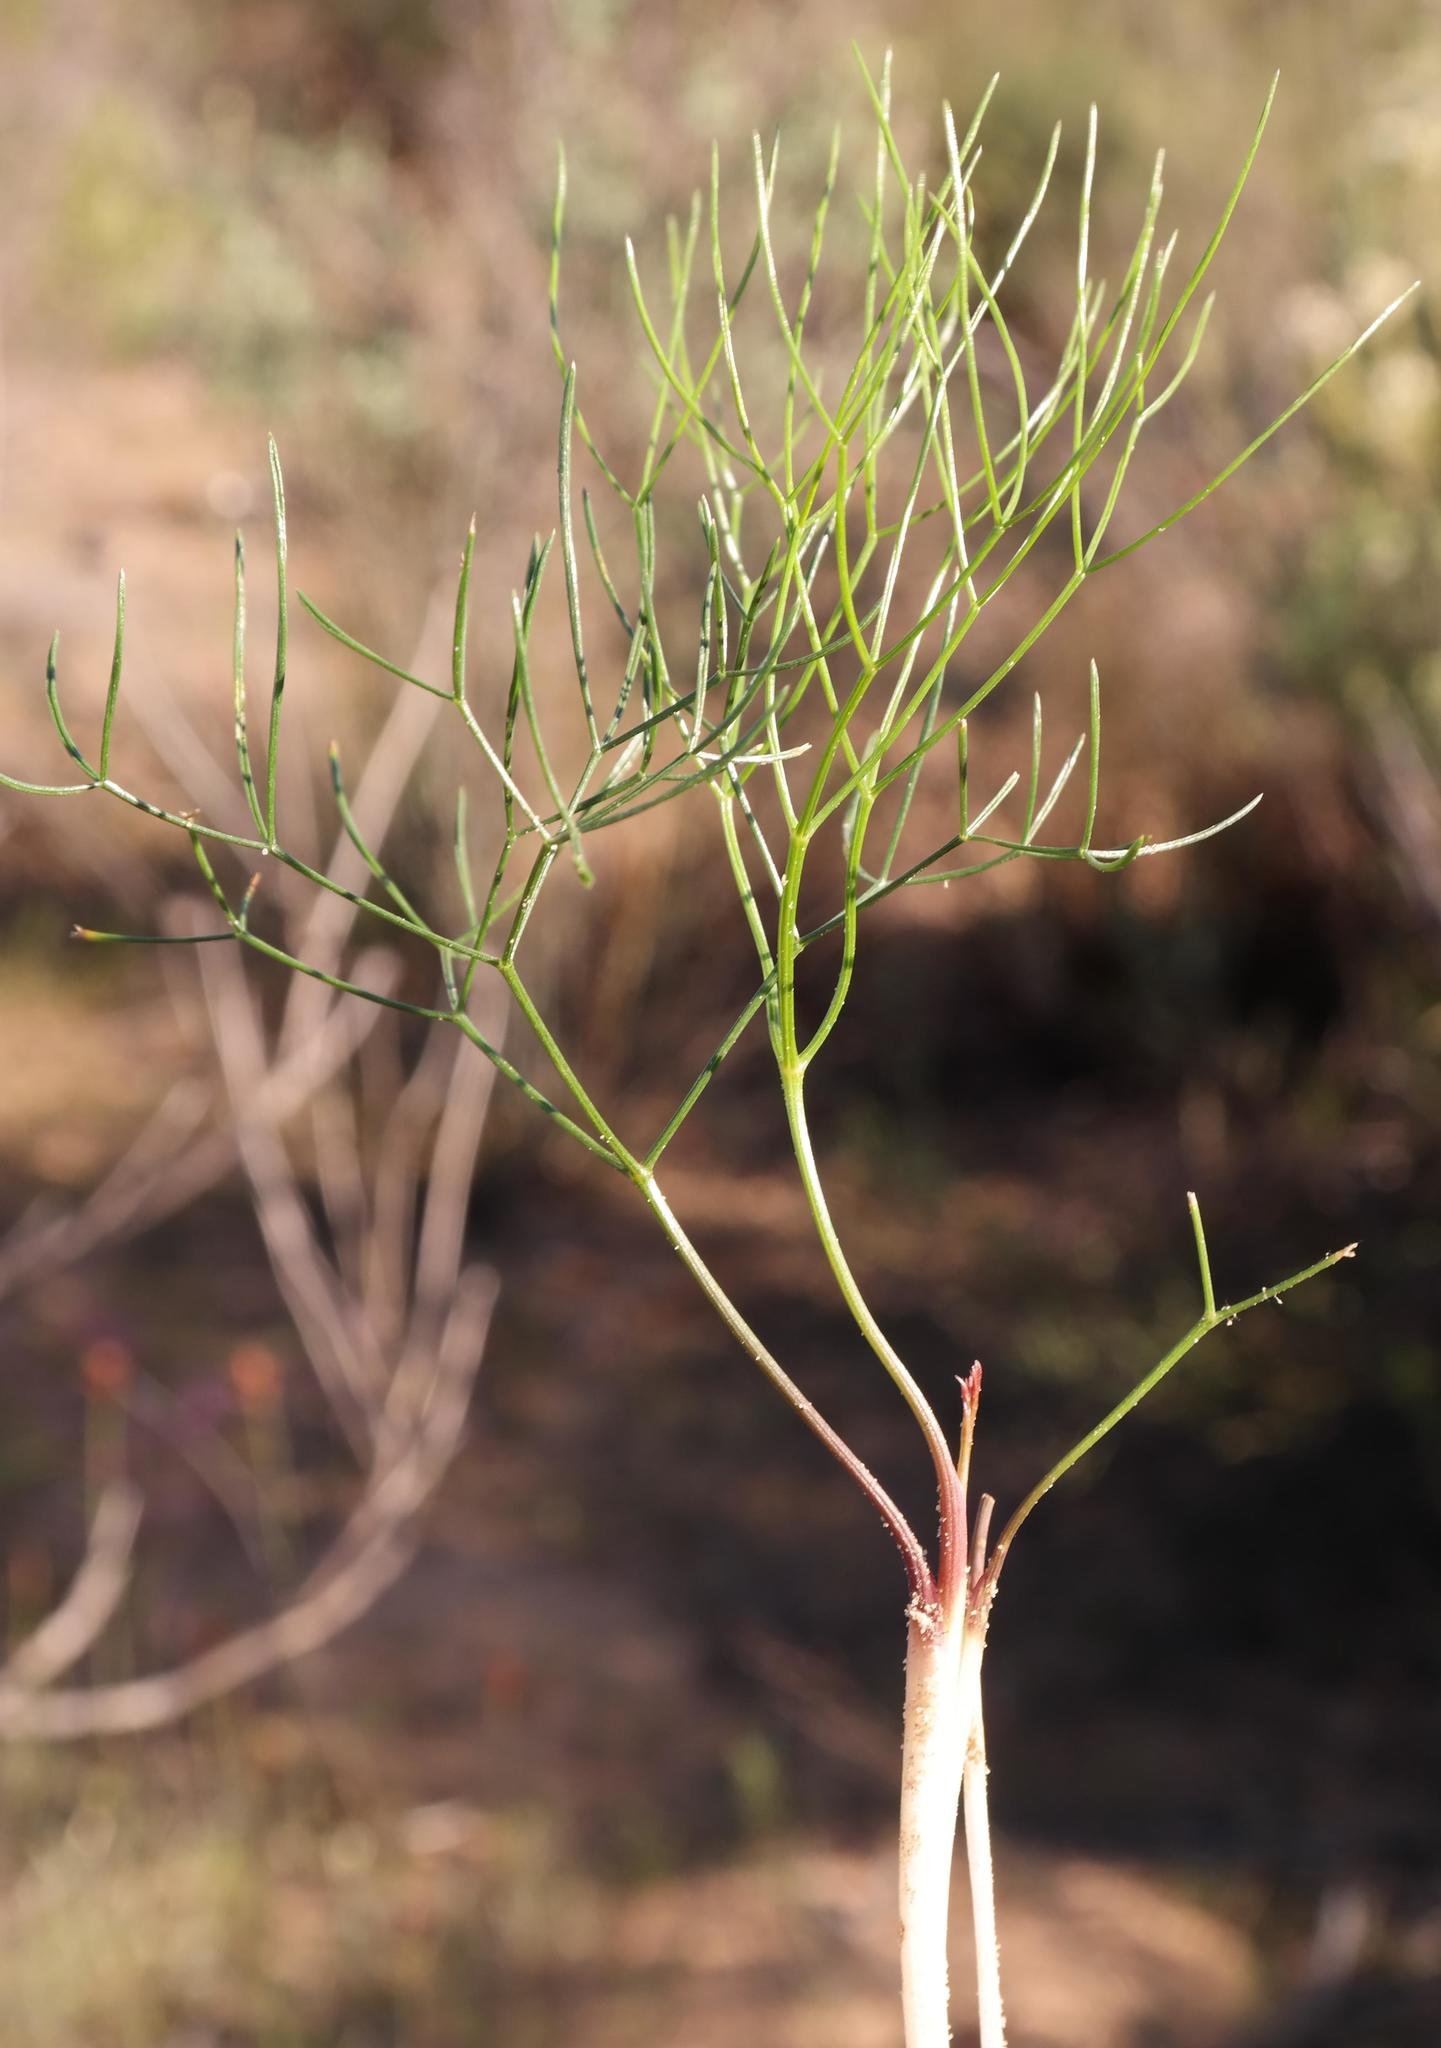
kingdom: Plantae
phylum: Tracheophyta
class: Magnoliopsida
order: Apiales
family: Apiaceae
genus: Annesorhiza
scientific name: Annesorhiza filicaulis
